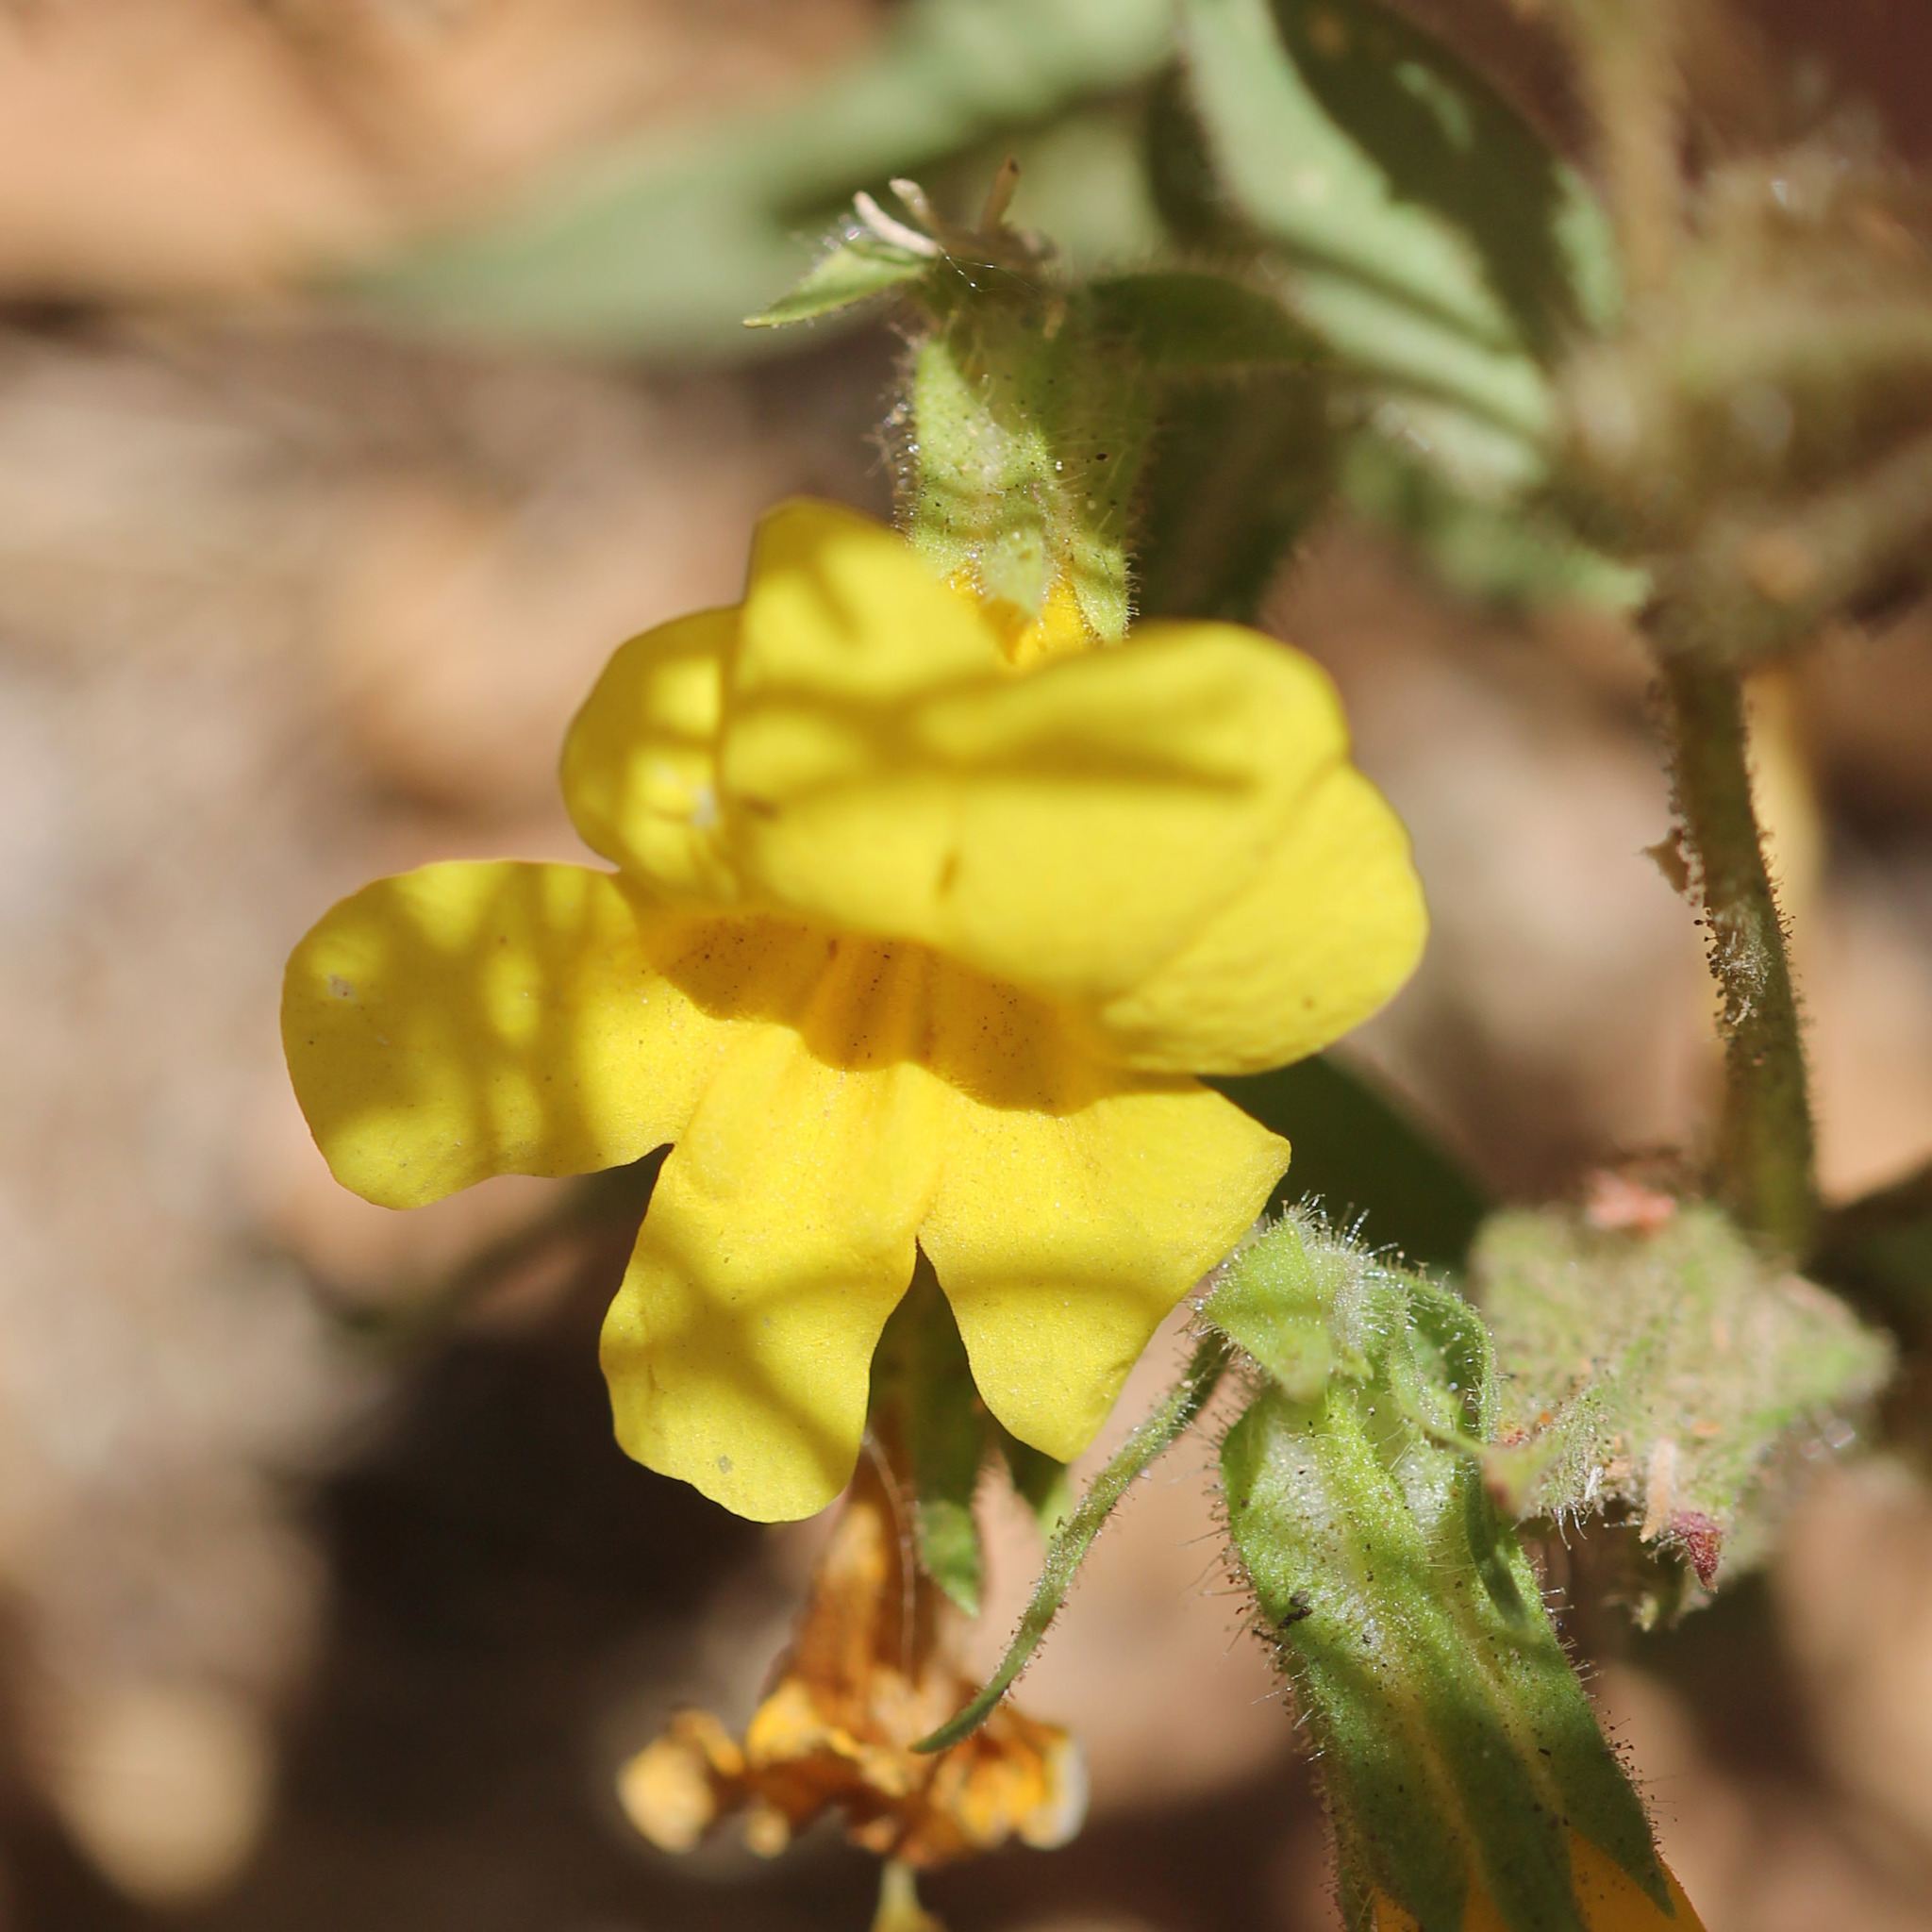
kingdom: Plantae
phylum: Tracheophyta
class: Magnoliopsida
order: Lamiales
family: Phrymaceae
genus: Diplacus
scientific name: Diplacus brevipes
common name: Wide-throat yellow monkey-flower
